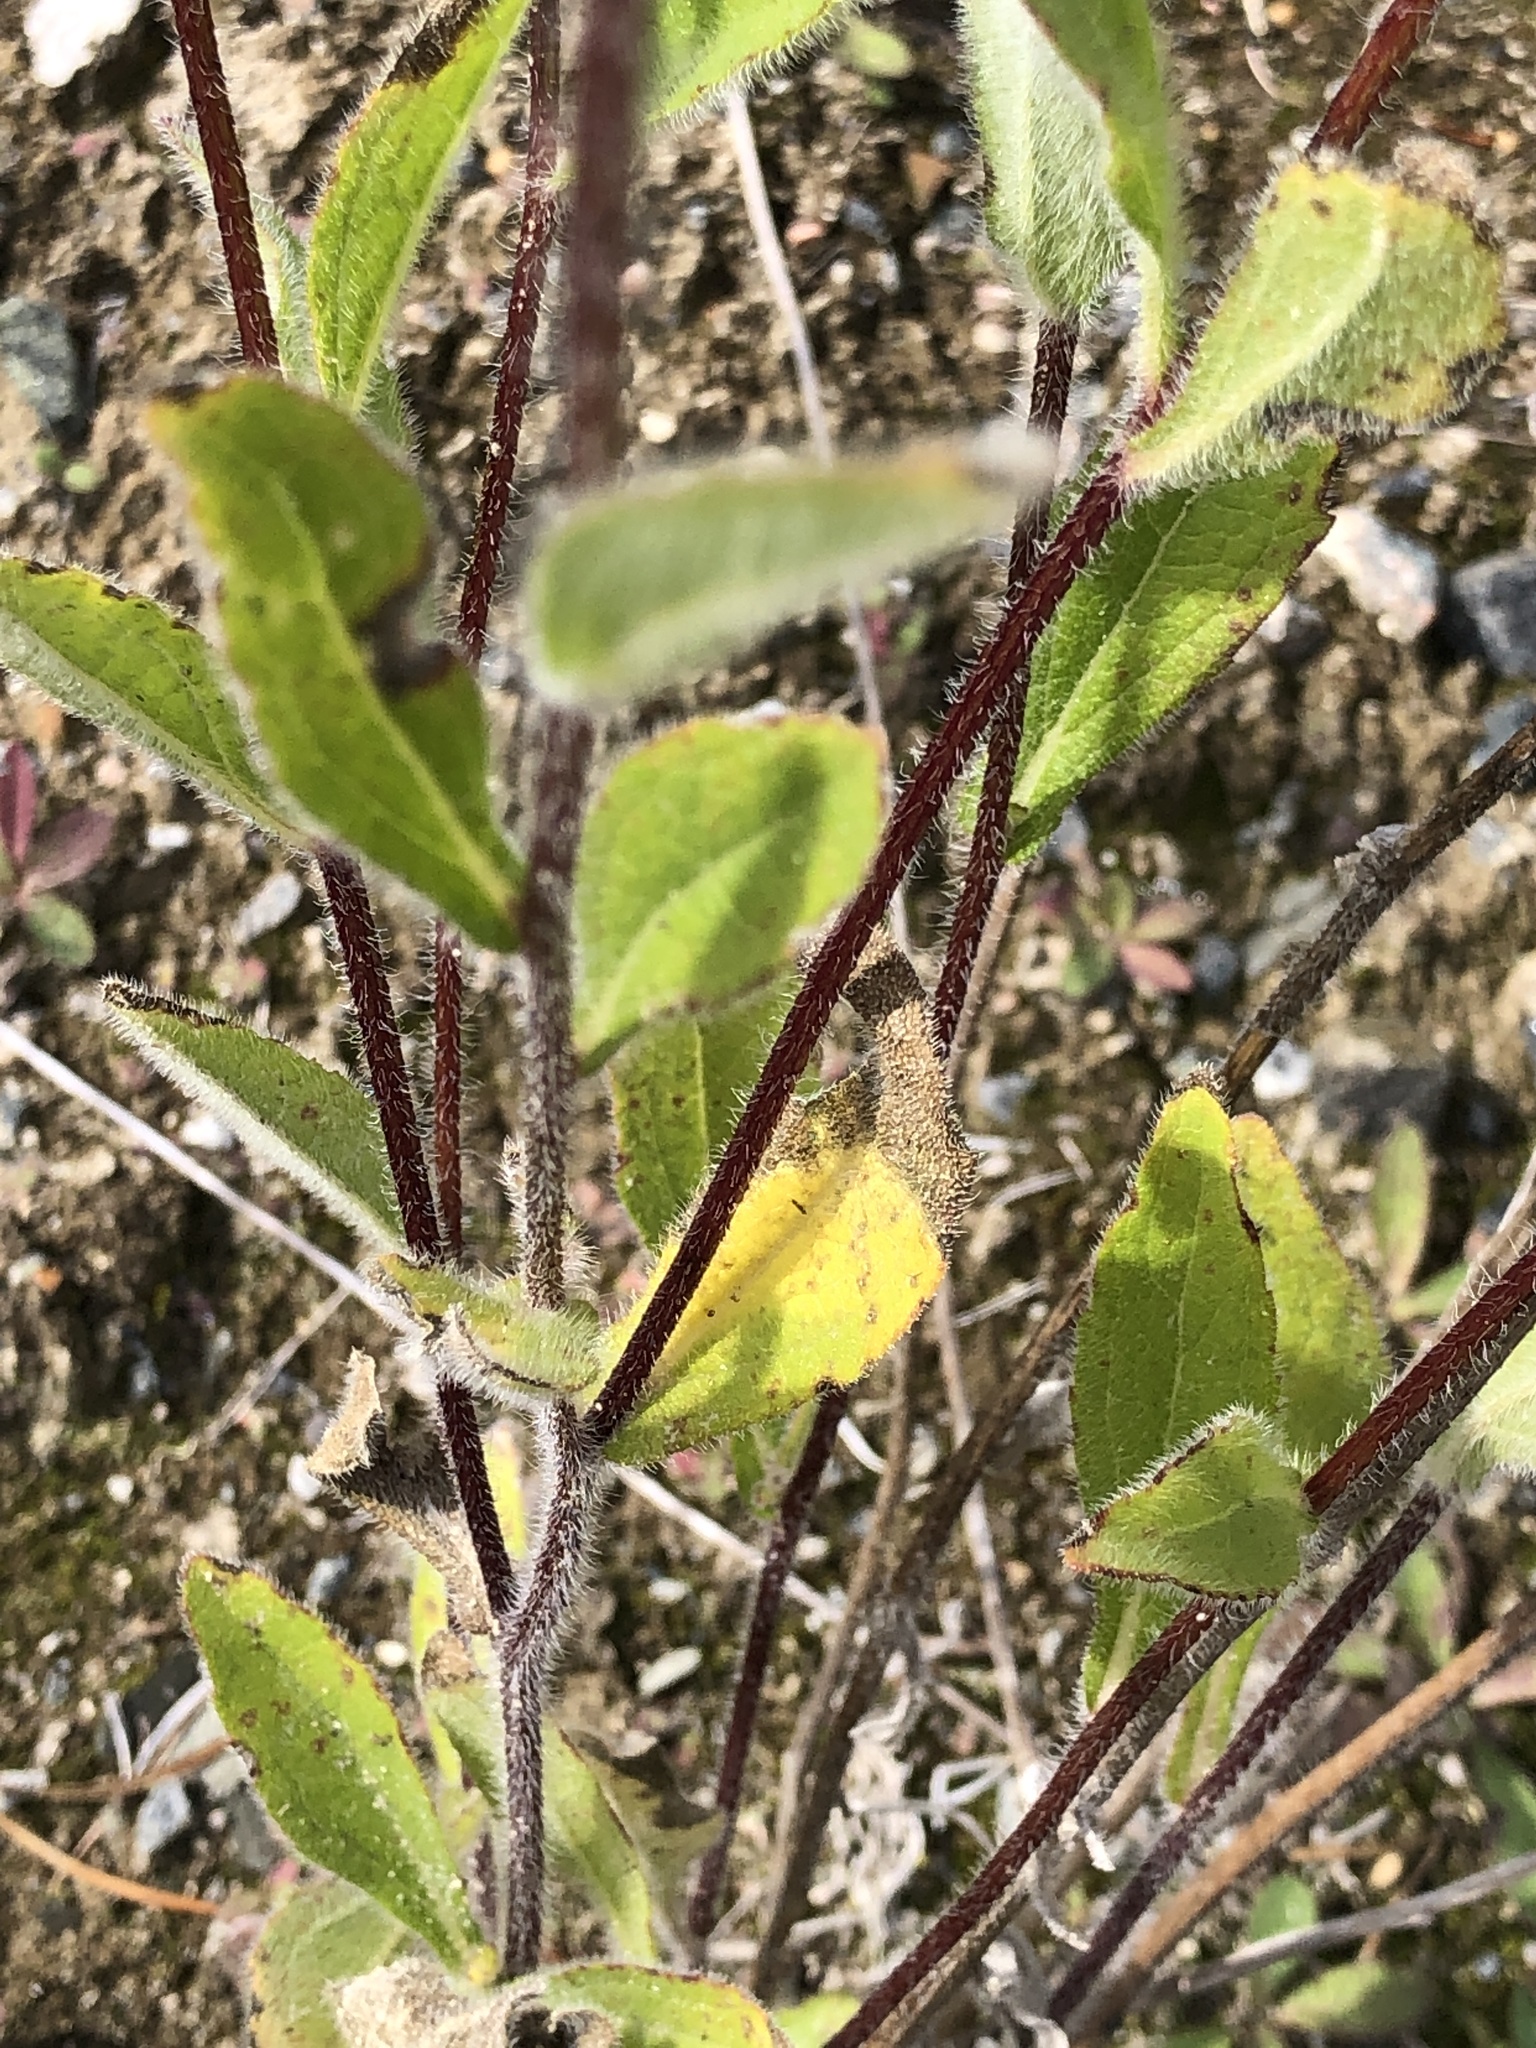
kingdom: Plantae
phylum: Tracheophyta
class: Magnoliopsida
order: Asterales
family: Asteraceae
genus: Rudbeckia
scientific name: Rudbeckia hirta
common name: Black-eyed-susan
